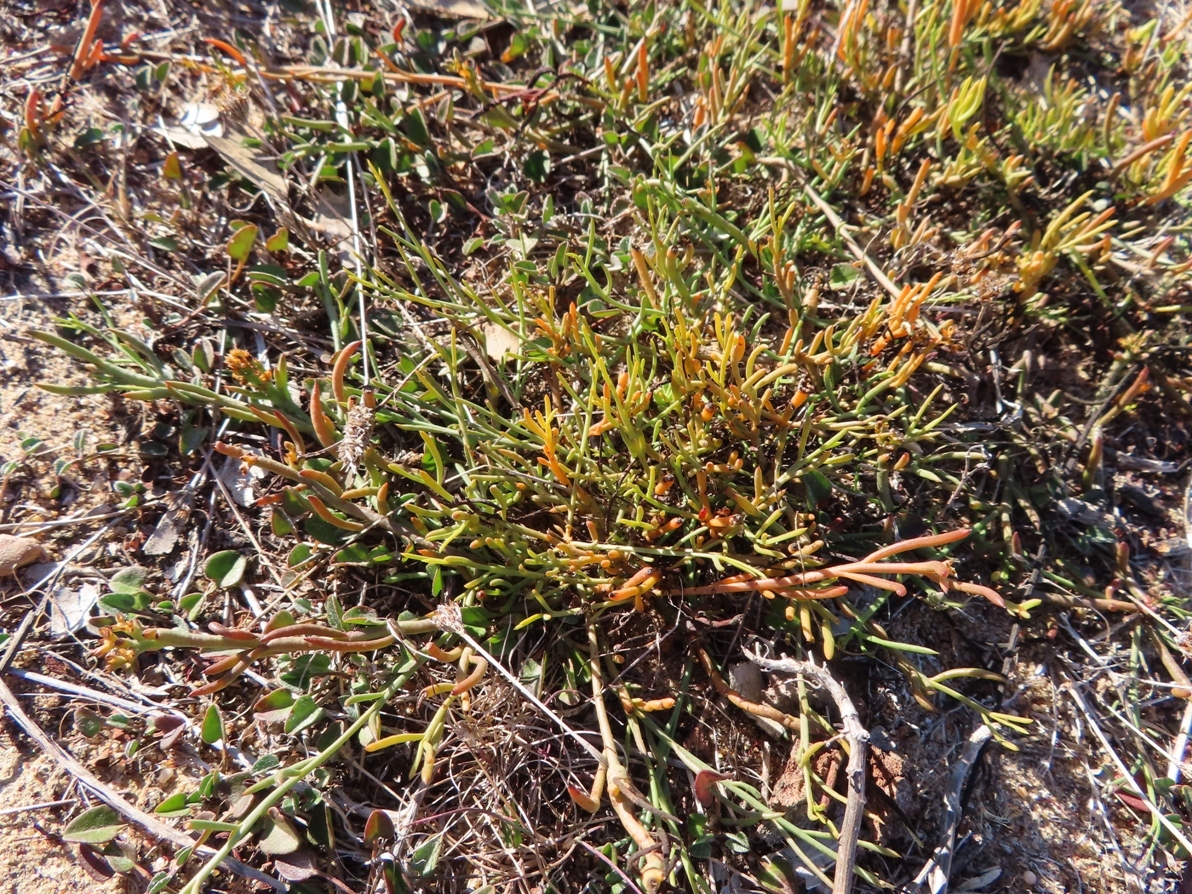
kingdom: Plantae
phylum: Tracheophyta
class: Magnoliopsida
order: Santalales
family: Thesiaceae
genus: Thesium
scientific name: Thesium frisea
